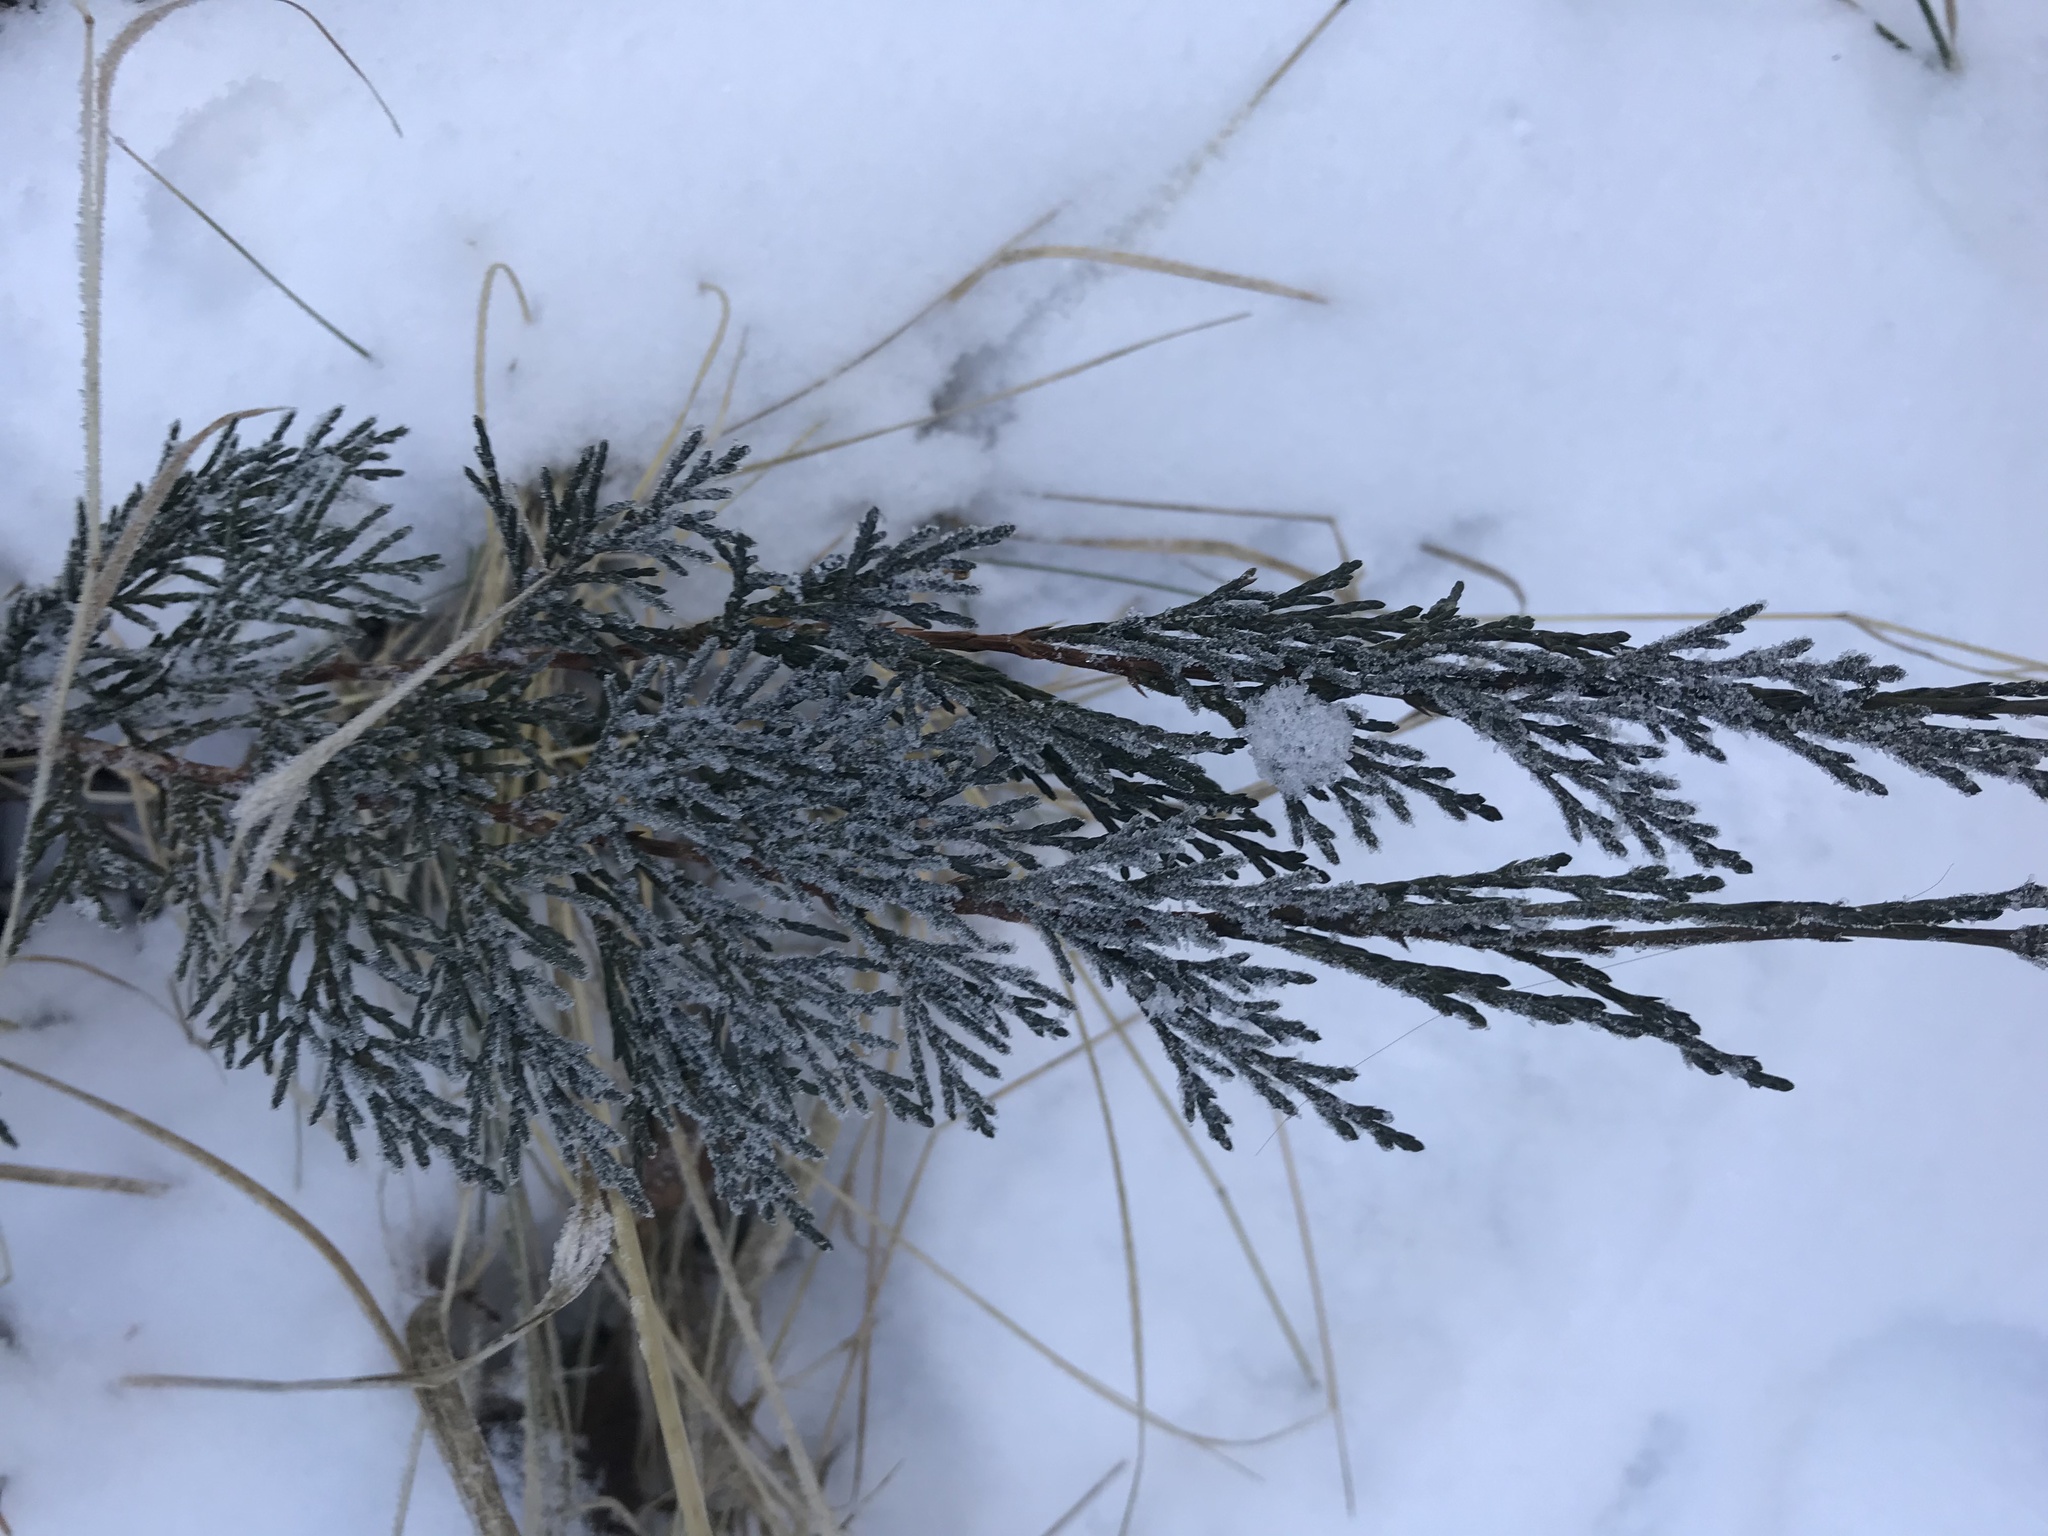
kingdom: Plantae
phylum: Tracheophyta
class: Pinopsida
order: Pinales
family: Cupressaceae
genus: Juniperus
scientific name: Juniperus horizontalis
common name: Creeping juniper
